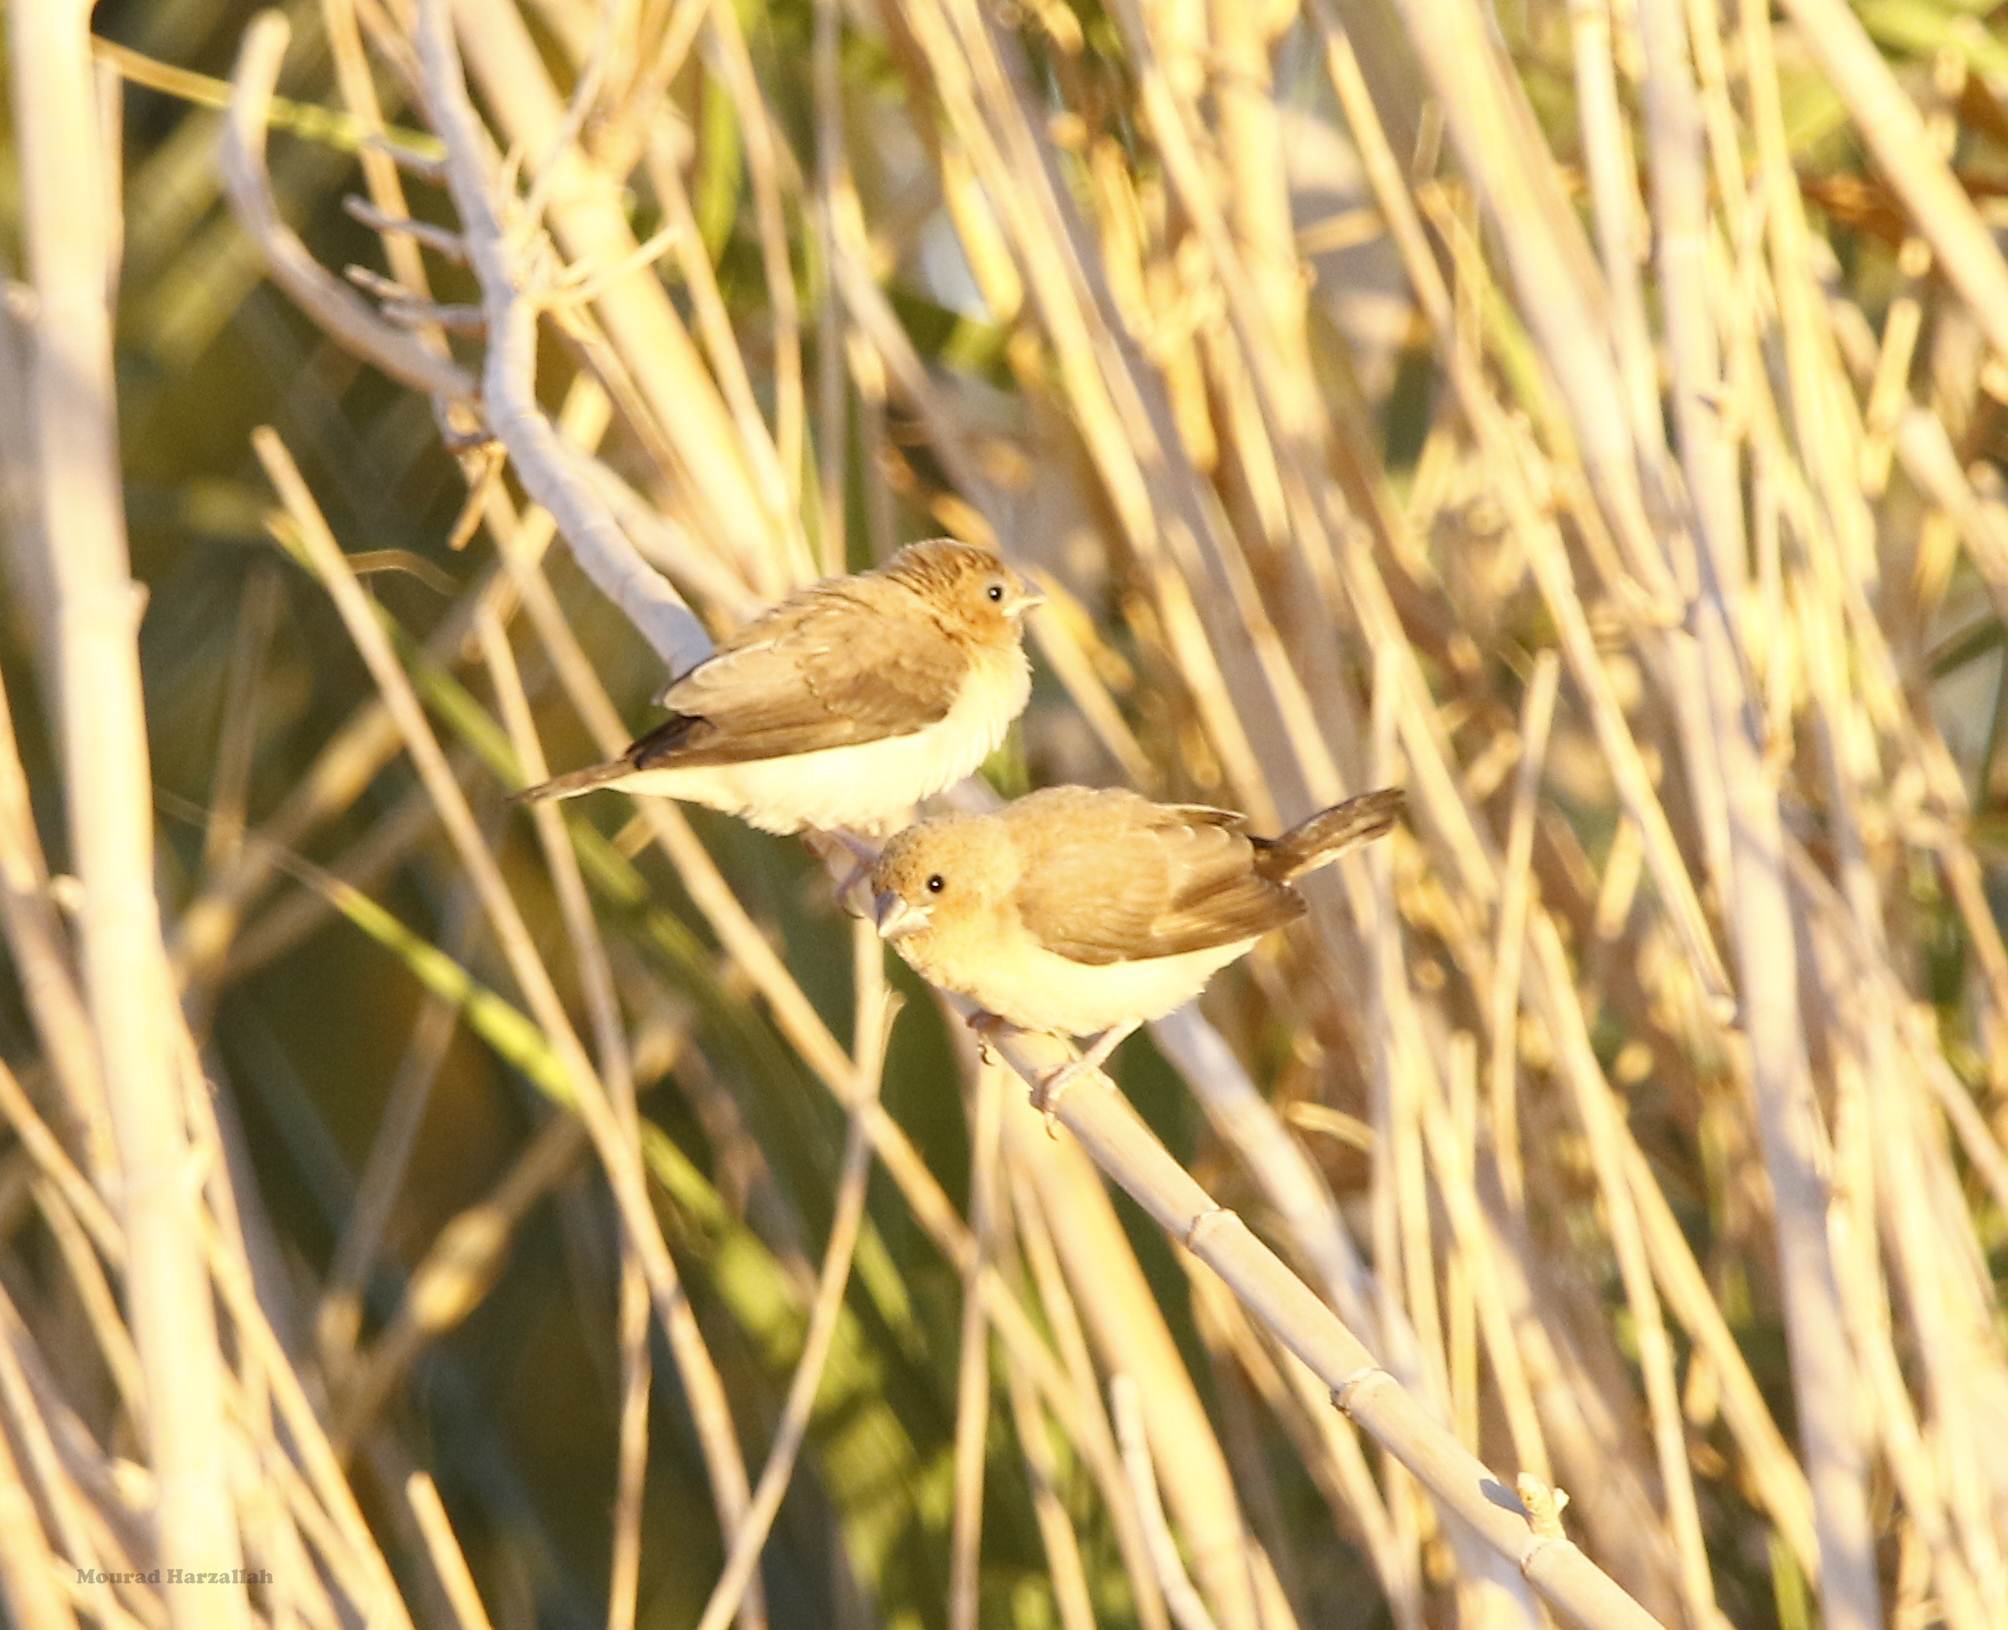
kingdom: Animalia
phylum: Chordata
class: Aves
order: Passeriformes
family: Estrildidae
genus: Euodice
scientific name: Euodice cantans
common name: African silverbill
